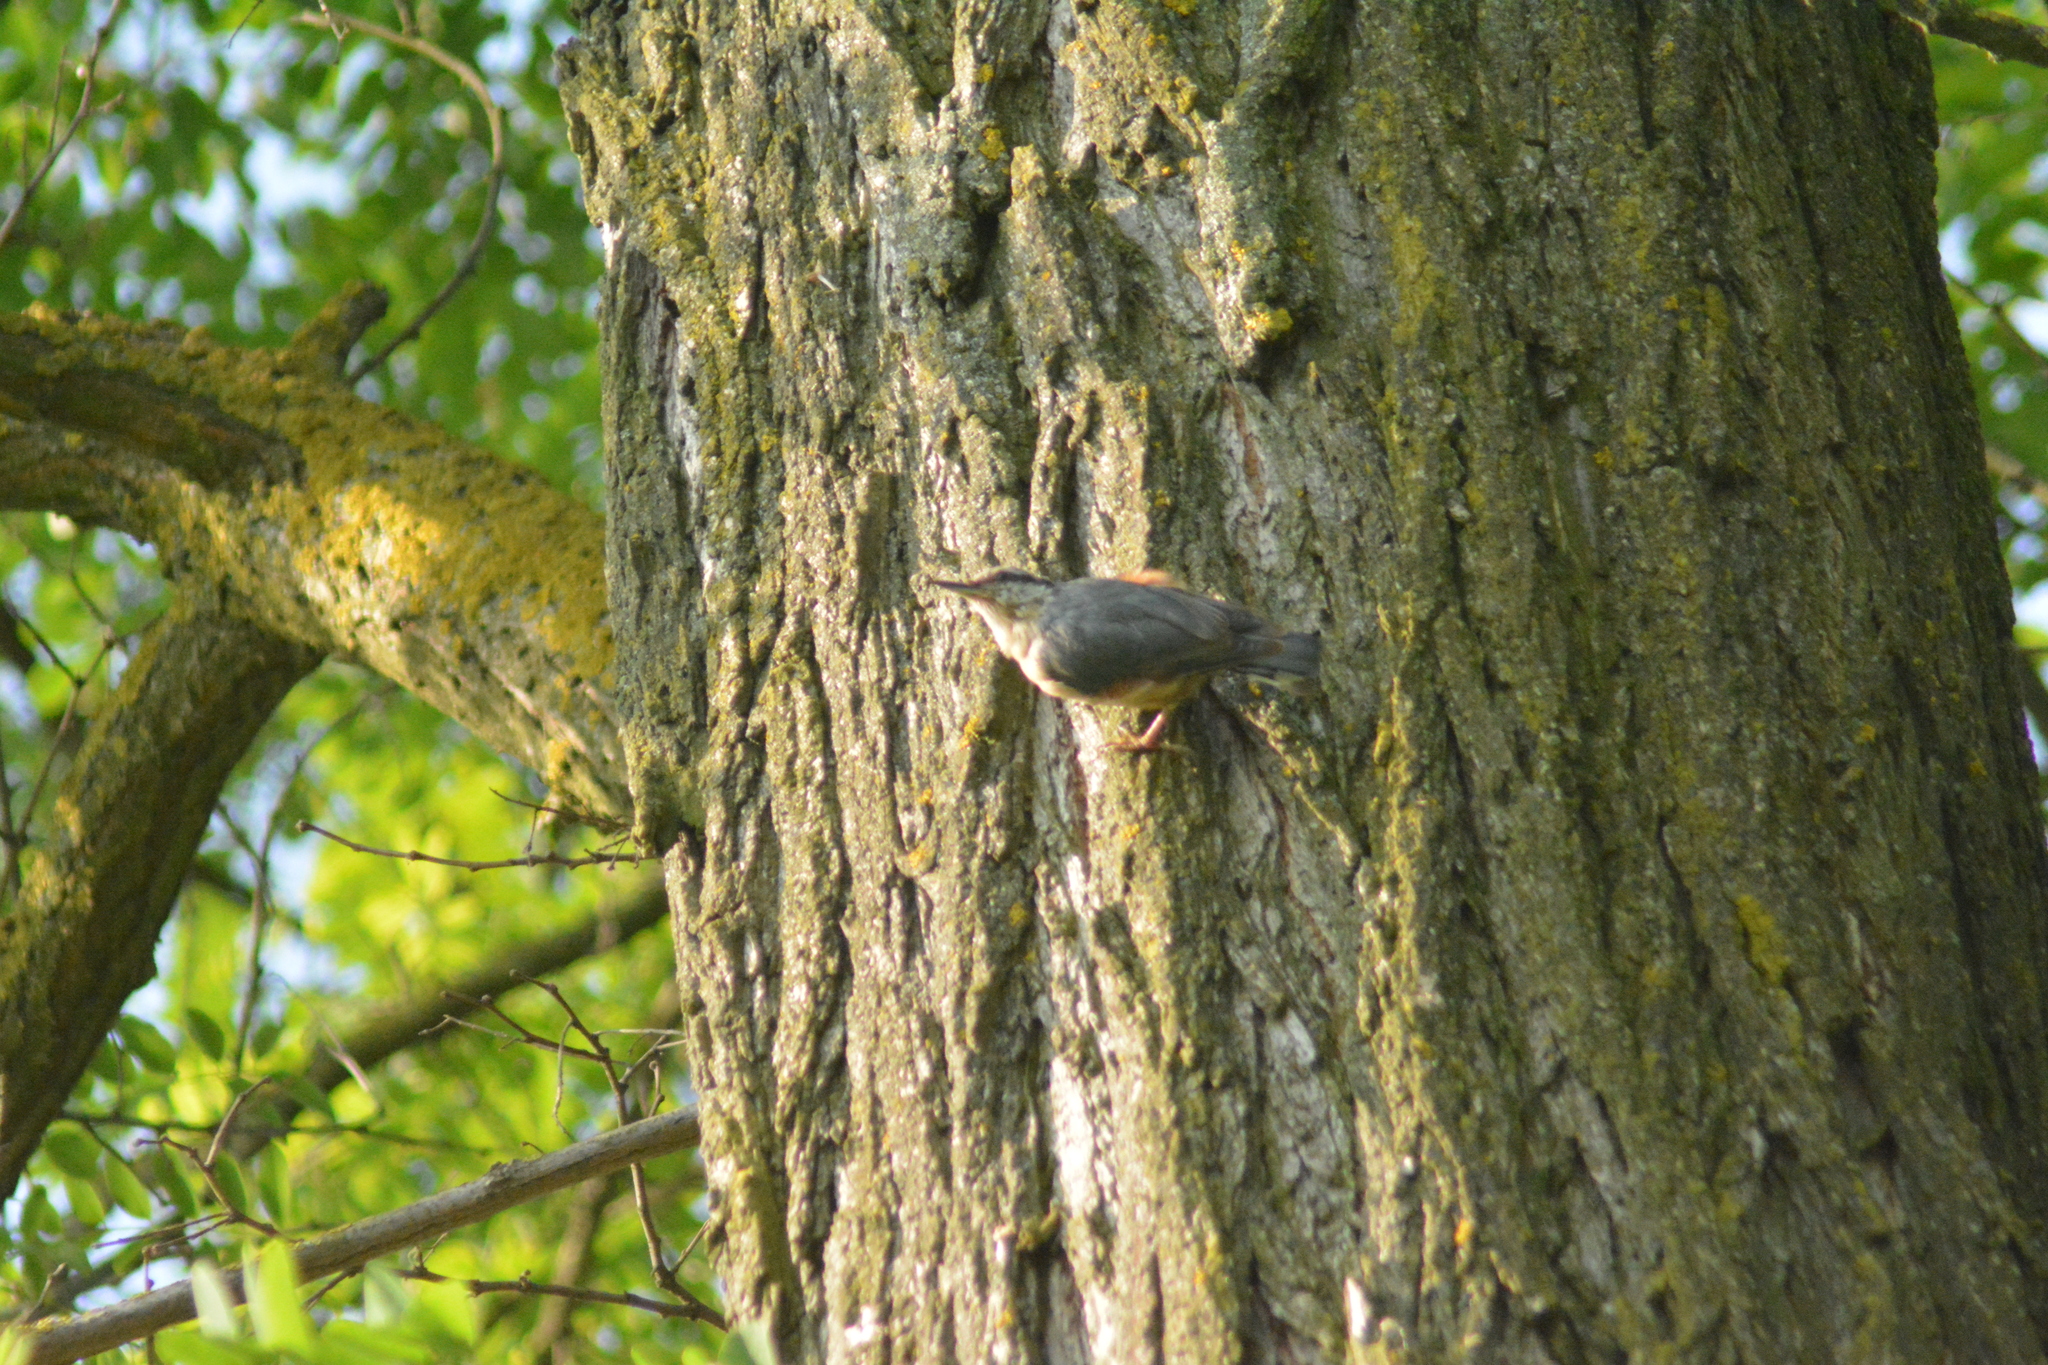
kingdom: Animalia
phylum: Chordata
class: Aves
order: Passeriformes
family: Sittidae
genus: Sitta
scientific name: Sitta europaea
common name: Eurasian nuthatch
